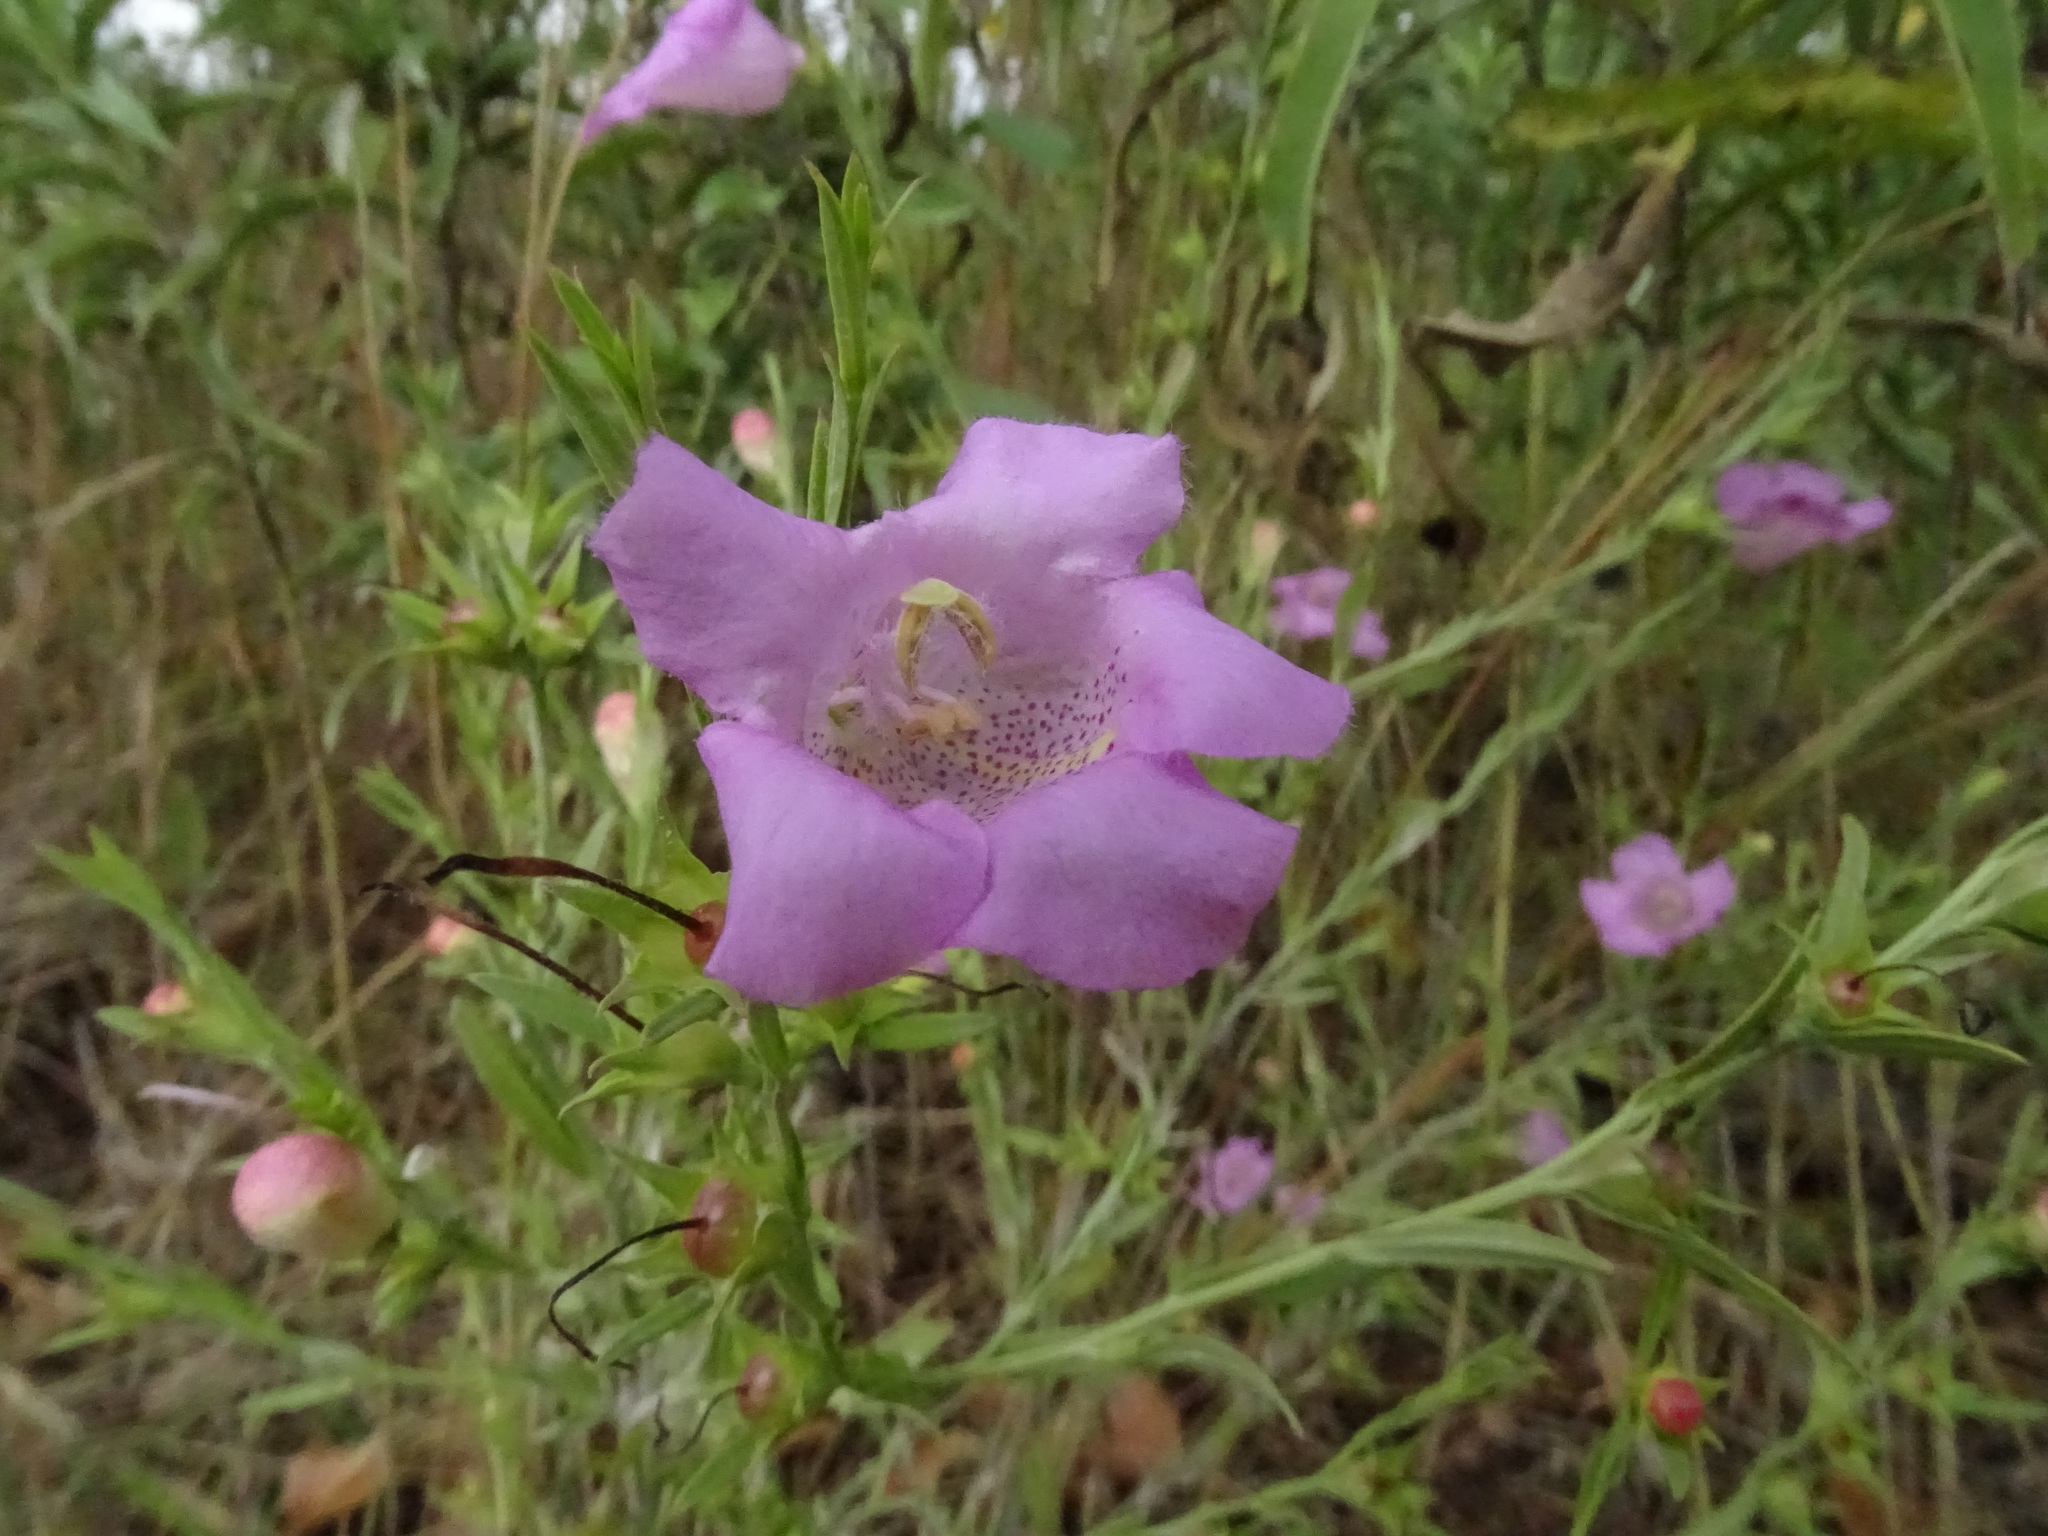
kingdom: Plantae
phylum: Tracheophyta
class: Magnoliopsida
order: Lamiales
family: Orobanchaceae
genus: Agalinis
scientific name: Agalinis heterophylla
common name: Prairie agalinis
